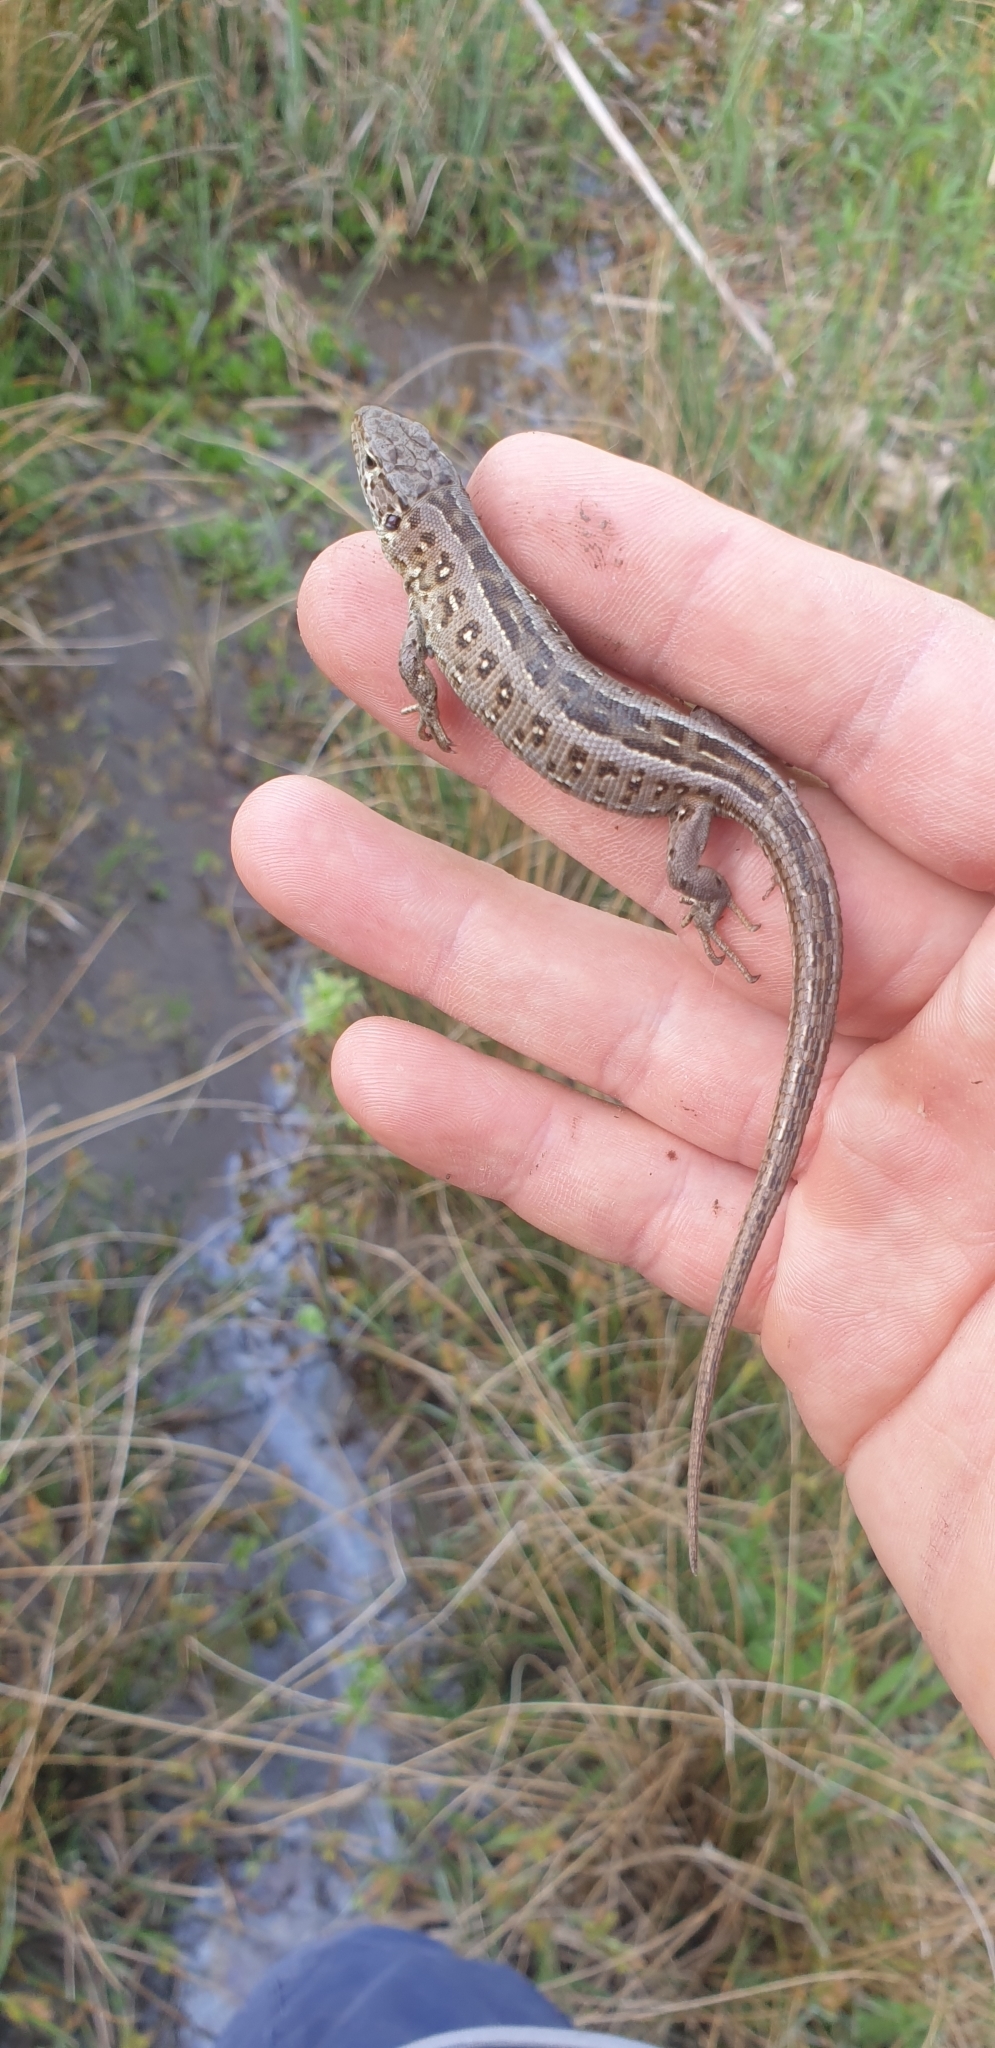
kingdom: Animalia
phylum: Chordata
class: Squamata
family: Lacertidae
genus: Lacerta
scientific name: Lacerta agilis
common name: Sand lizard
